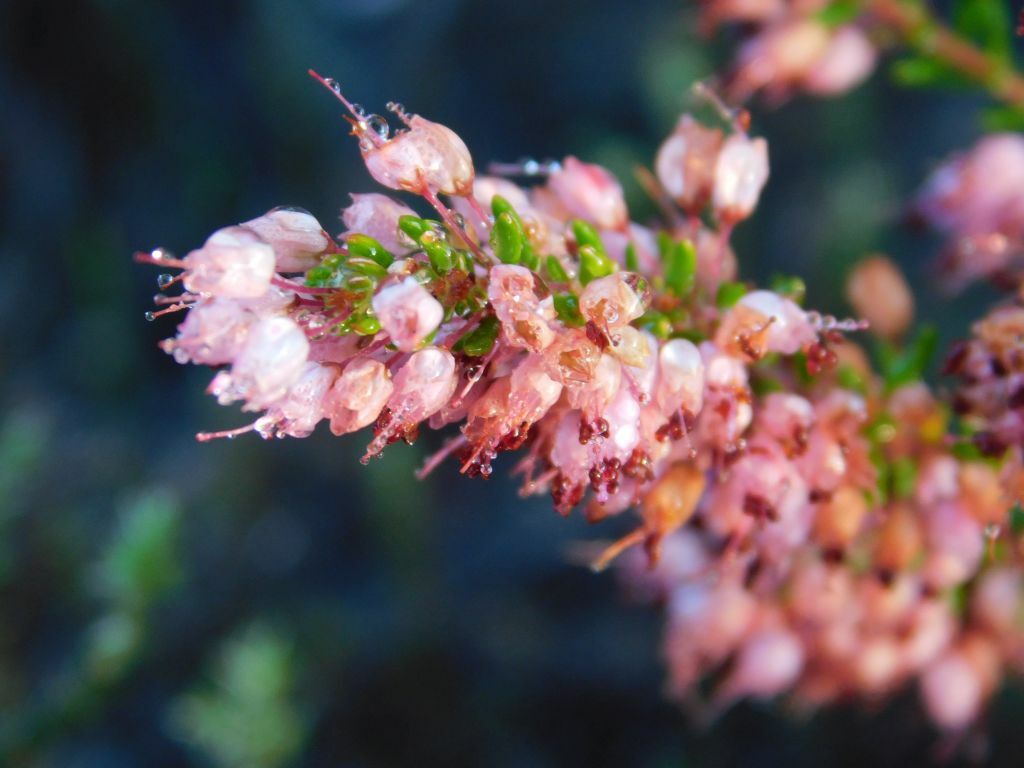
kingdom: Plantae
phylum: Tracheophyta
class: Magnoliopsida
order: Ericales
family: Ericaceae
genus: Erica
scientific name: Erica nudiflora
